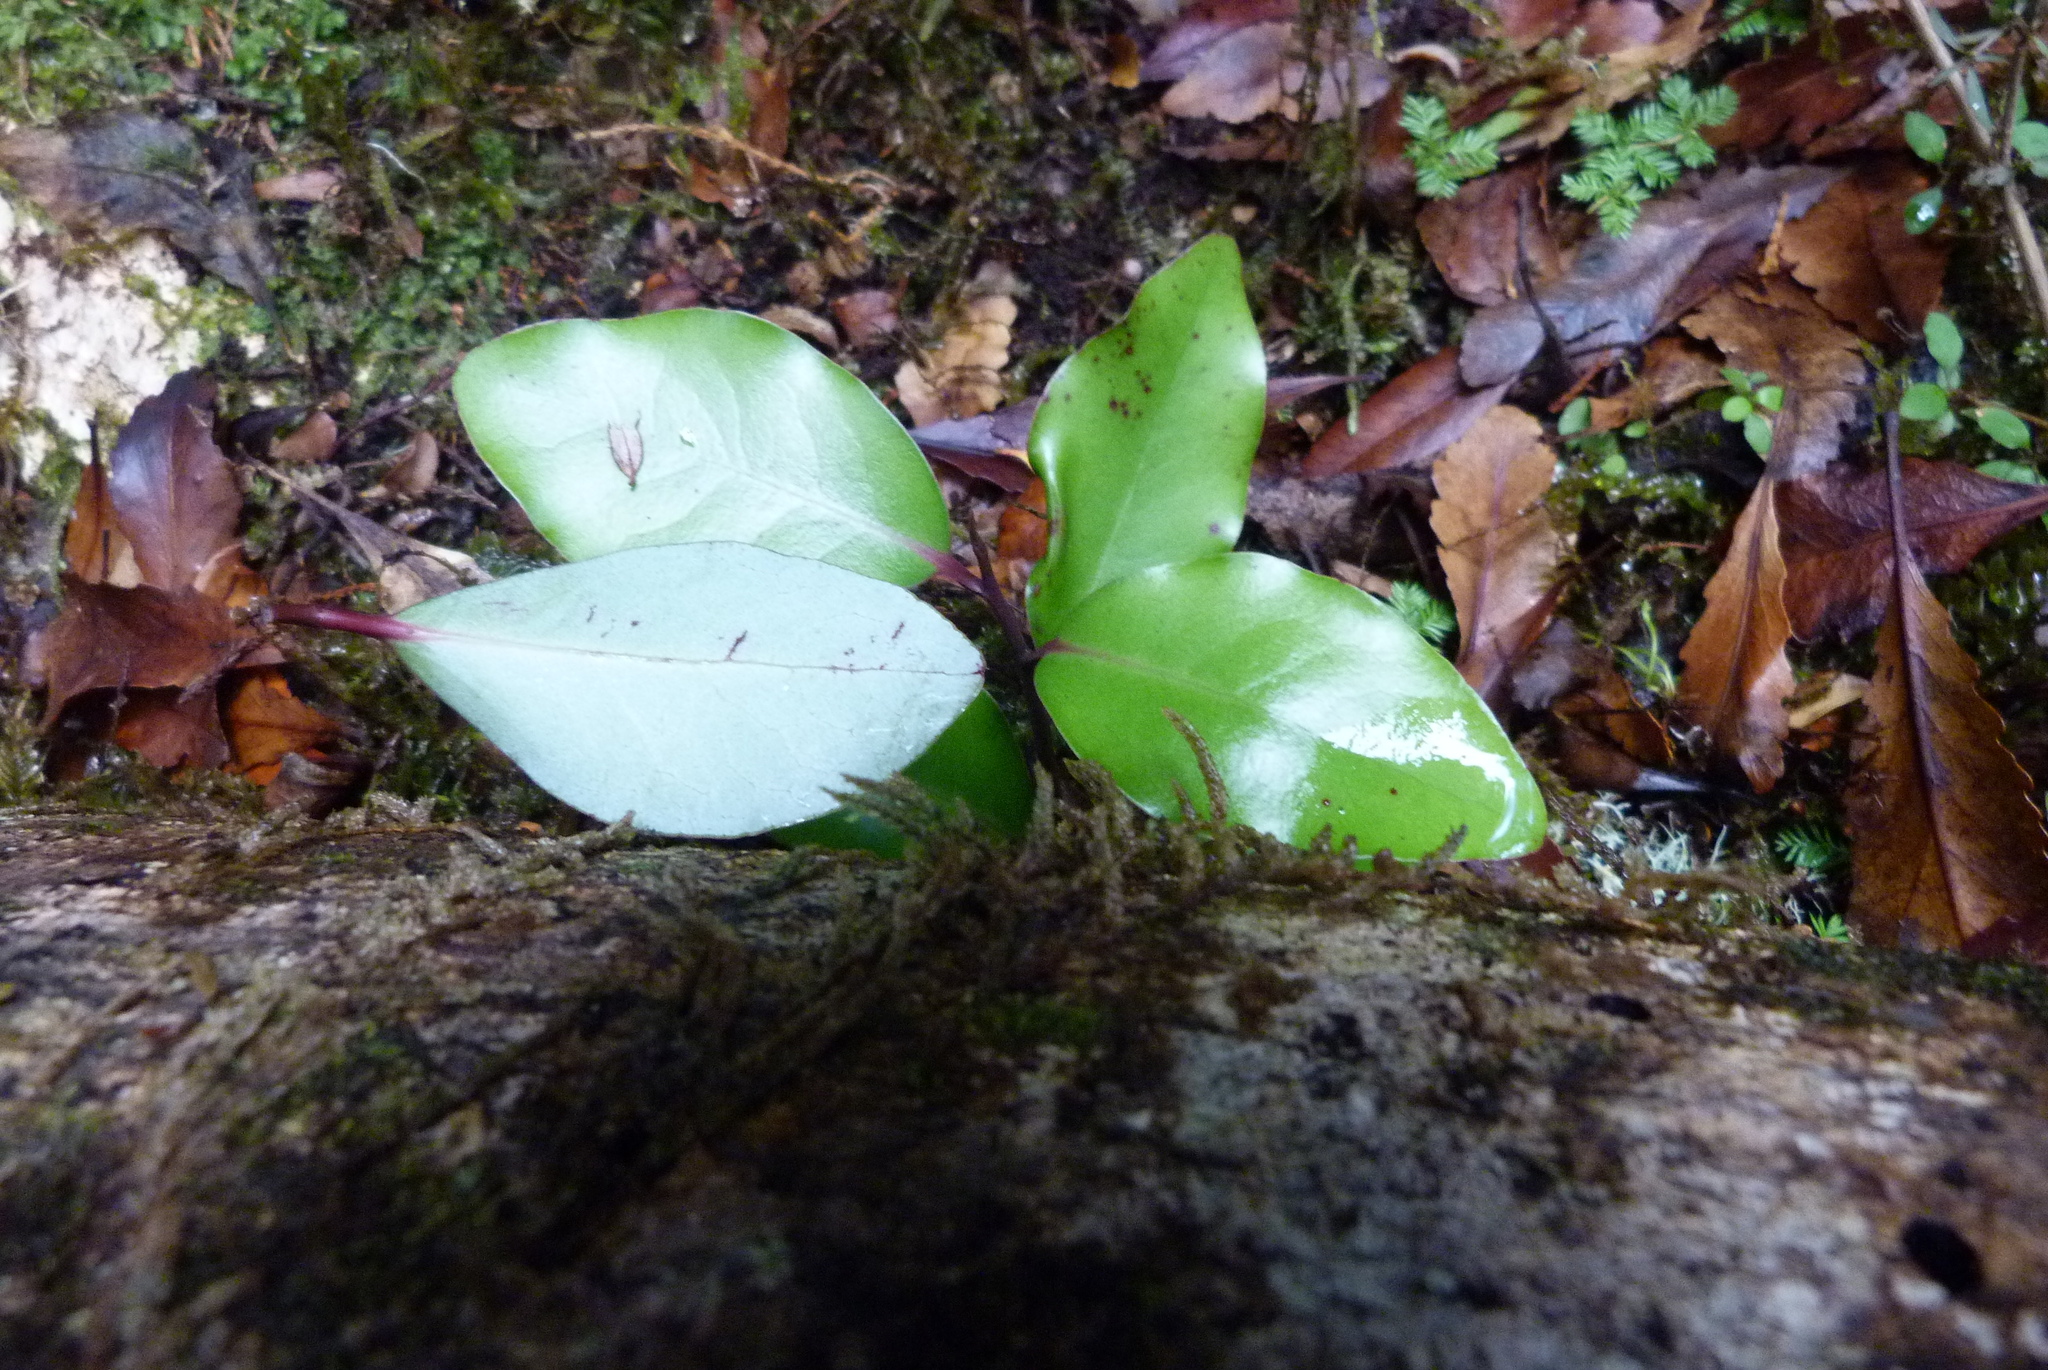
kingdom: Plantae
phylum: Tracheophyta
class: Magnoliopsida
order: Canellales
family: Winteraceae
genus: Pseudowintera
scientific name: Pseudowintera colorata
